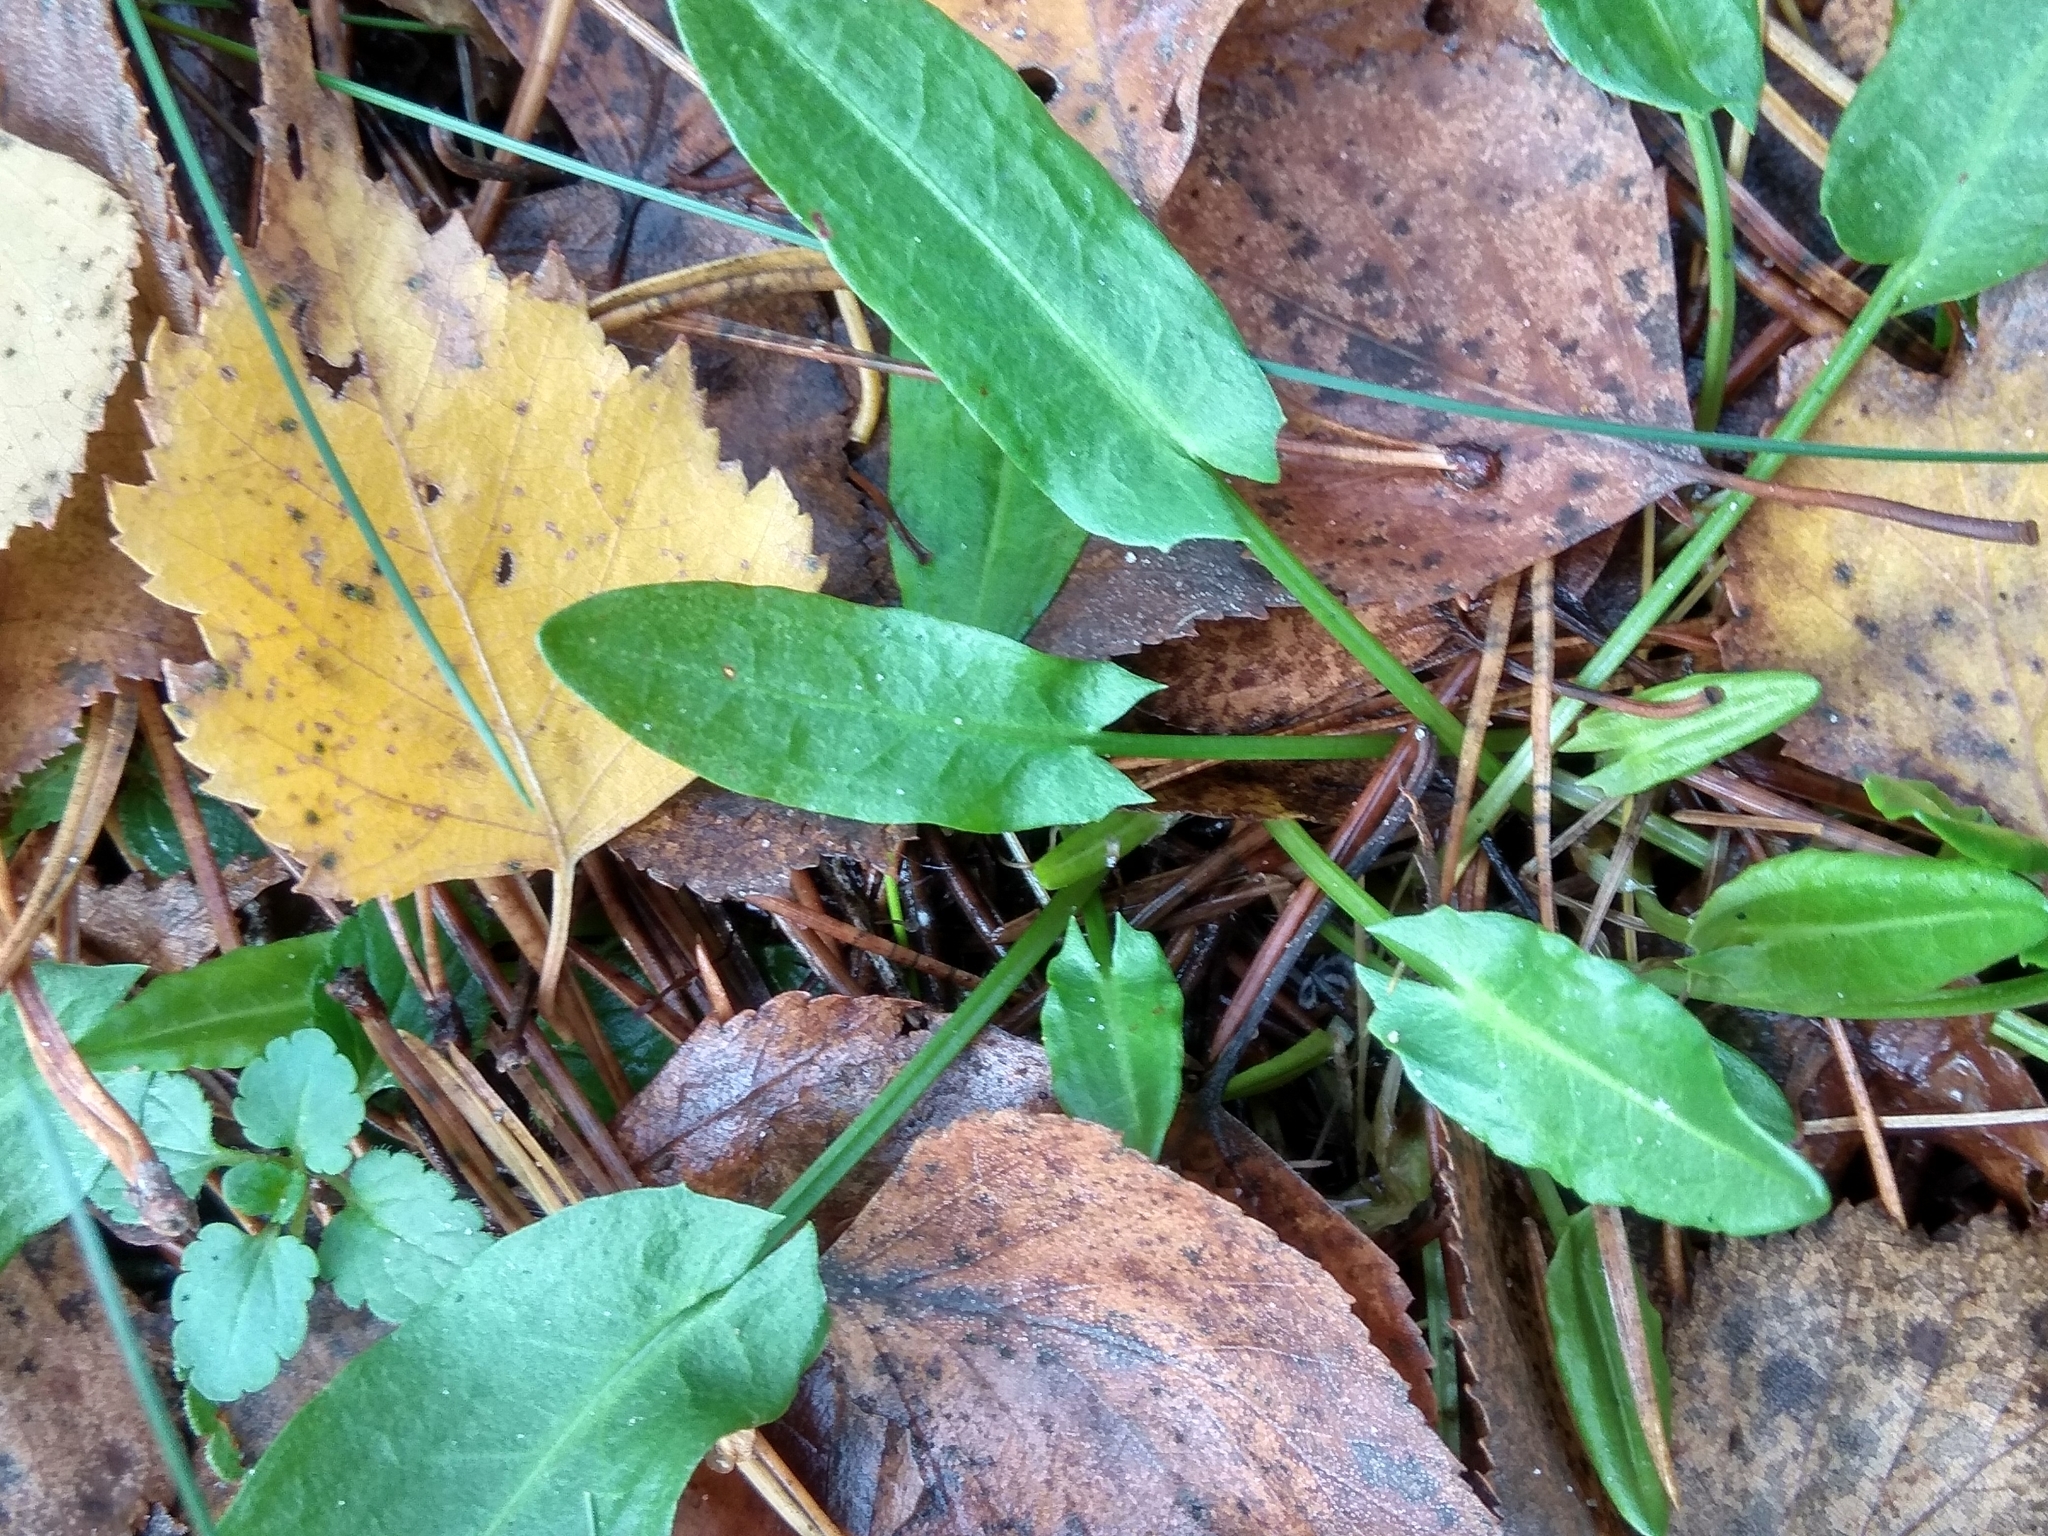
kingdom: Plantae
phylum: Tracheophyta
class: Magnoliopsida
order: Caryophyllales
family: Polygonaceae
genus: Rumex
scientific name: Rumex acetosa
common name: Garden sorrel
